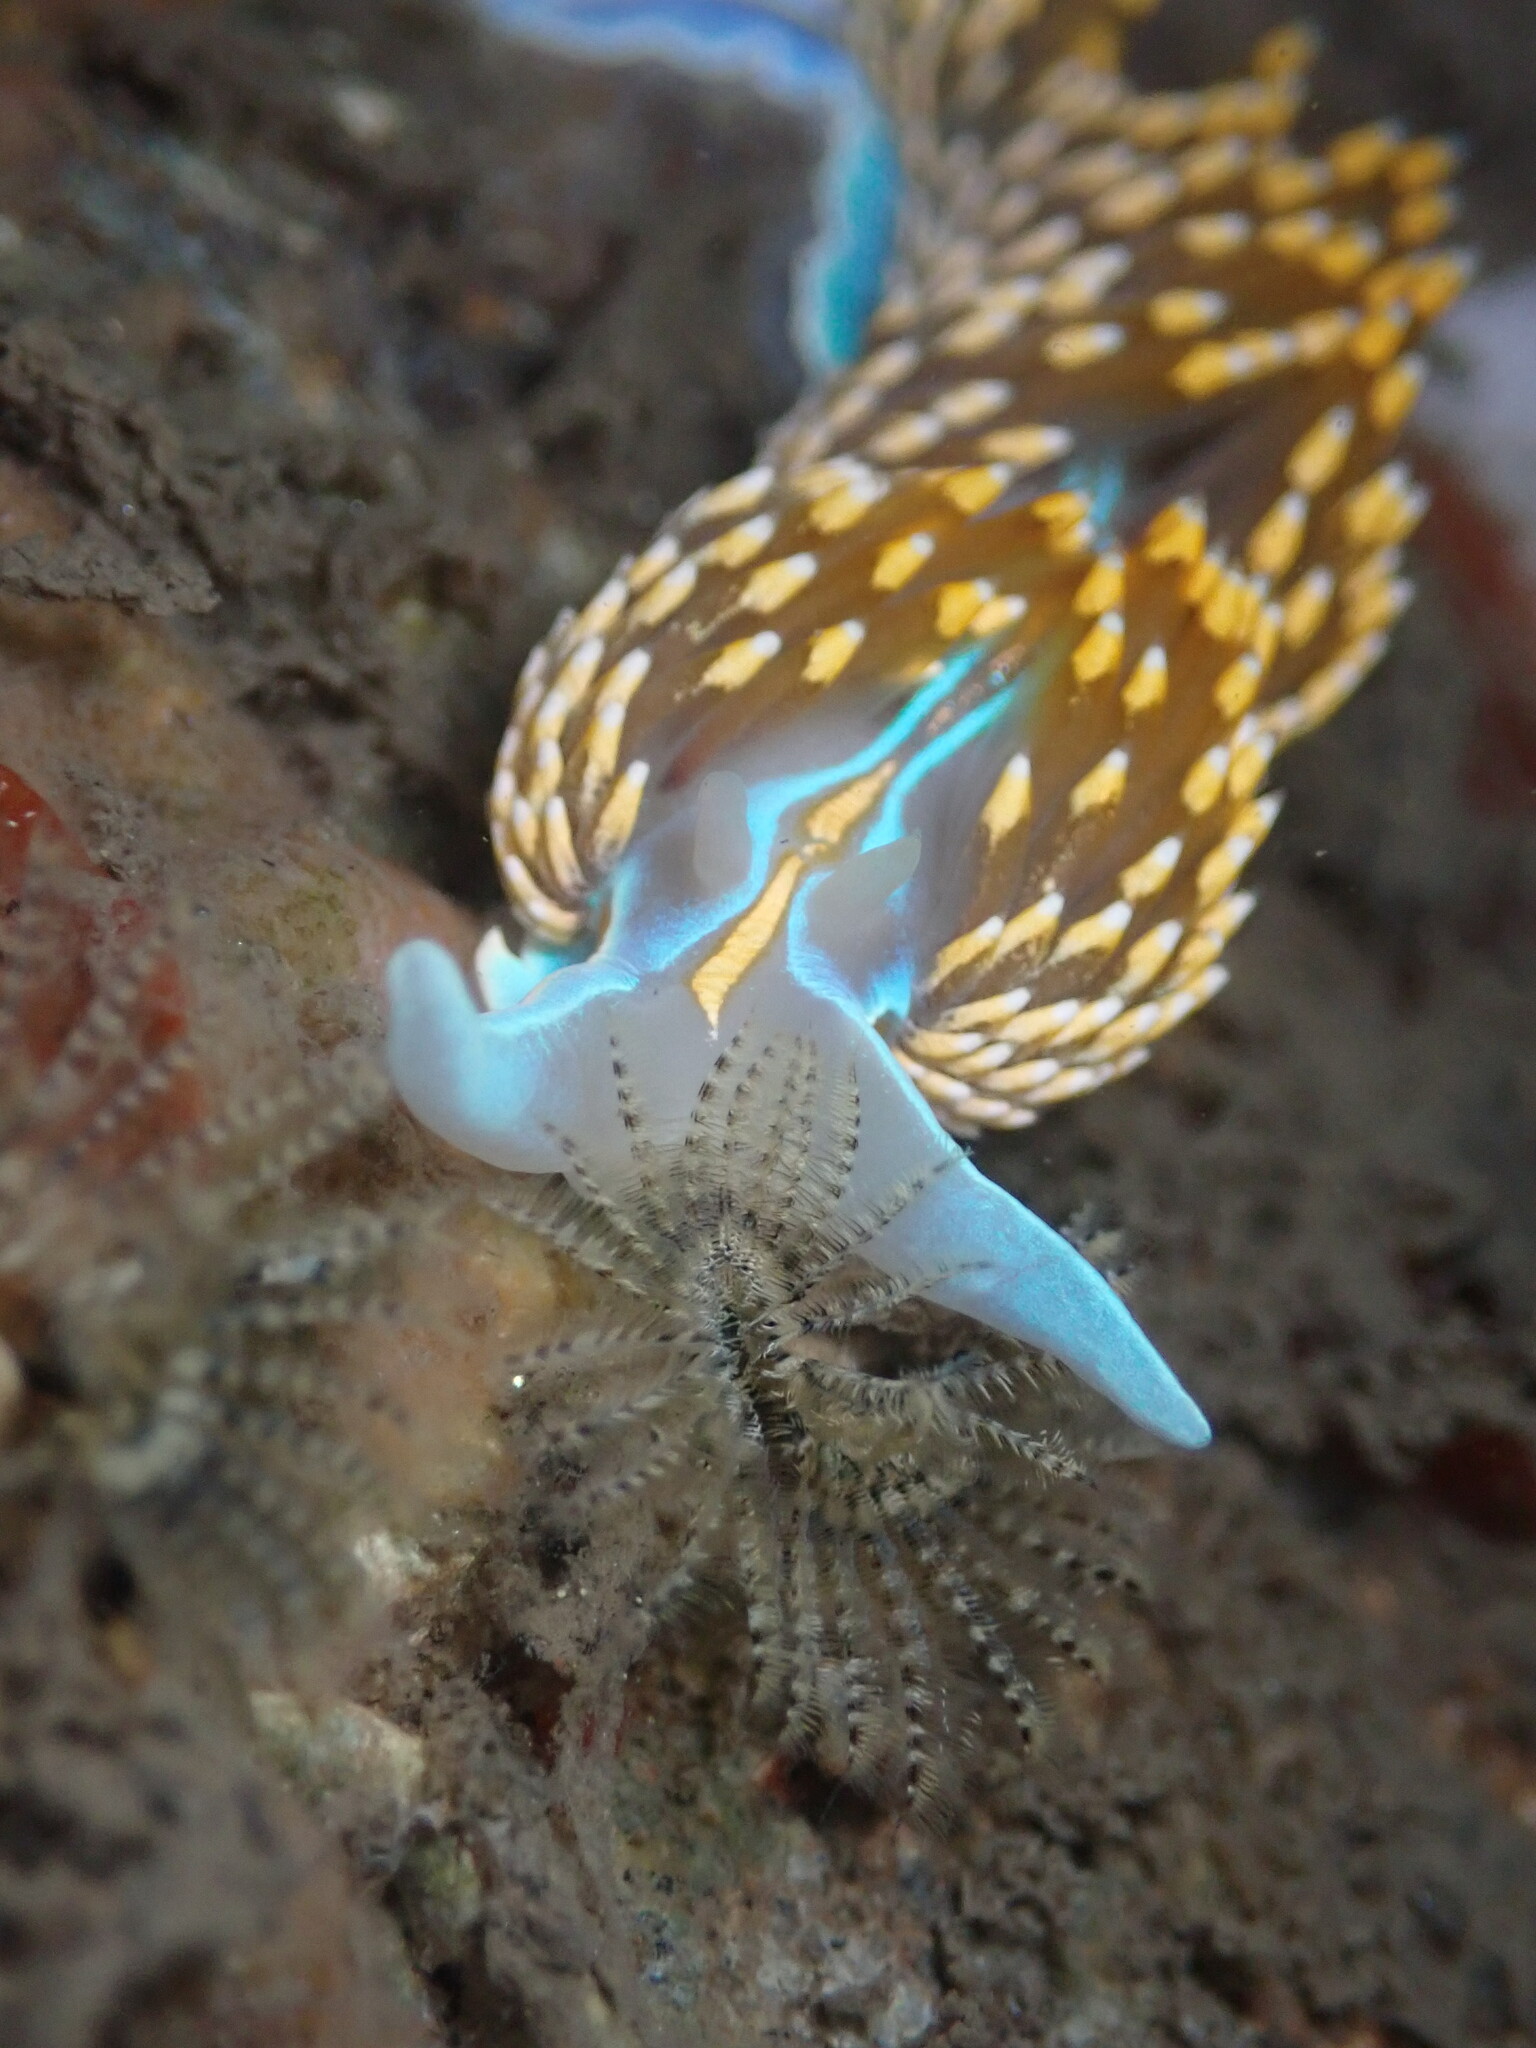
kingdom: Animalia
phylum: Mollusca
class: Gastropoda
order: Nudibranchia
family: Myrrhinidae
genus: Hermissenda
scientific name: Hermissenda opalescens
